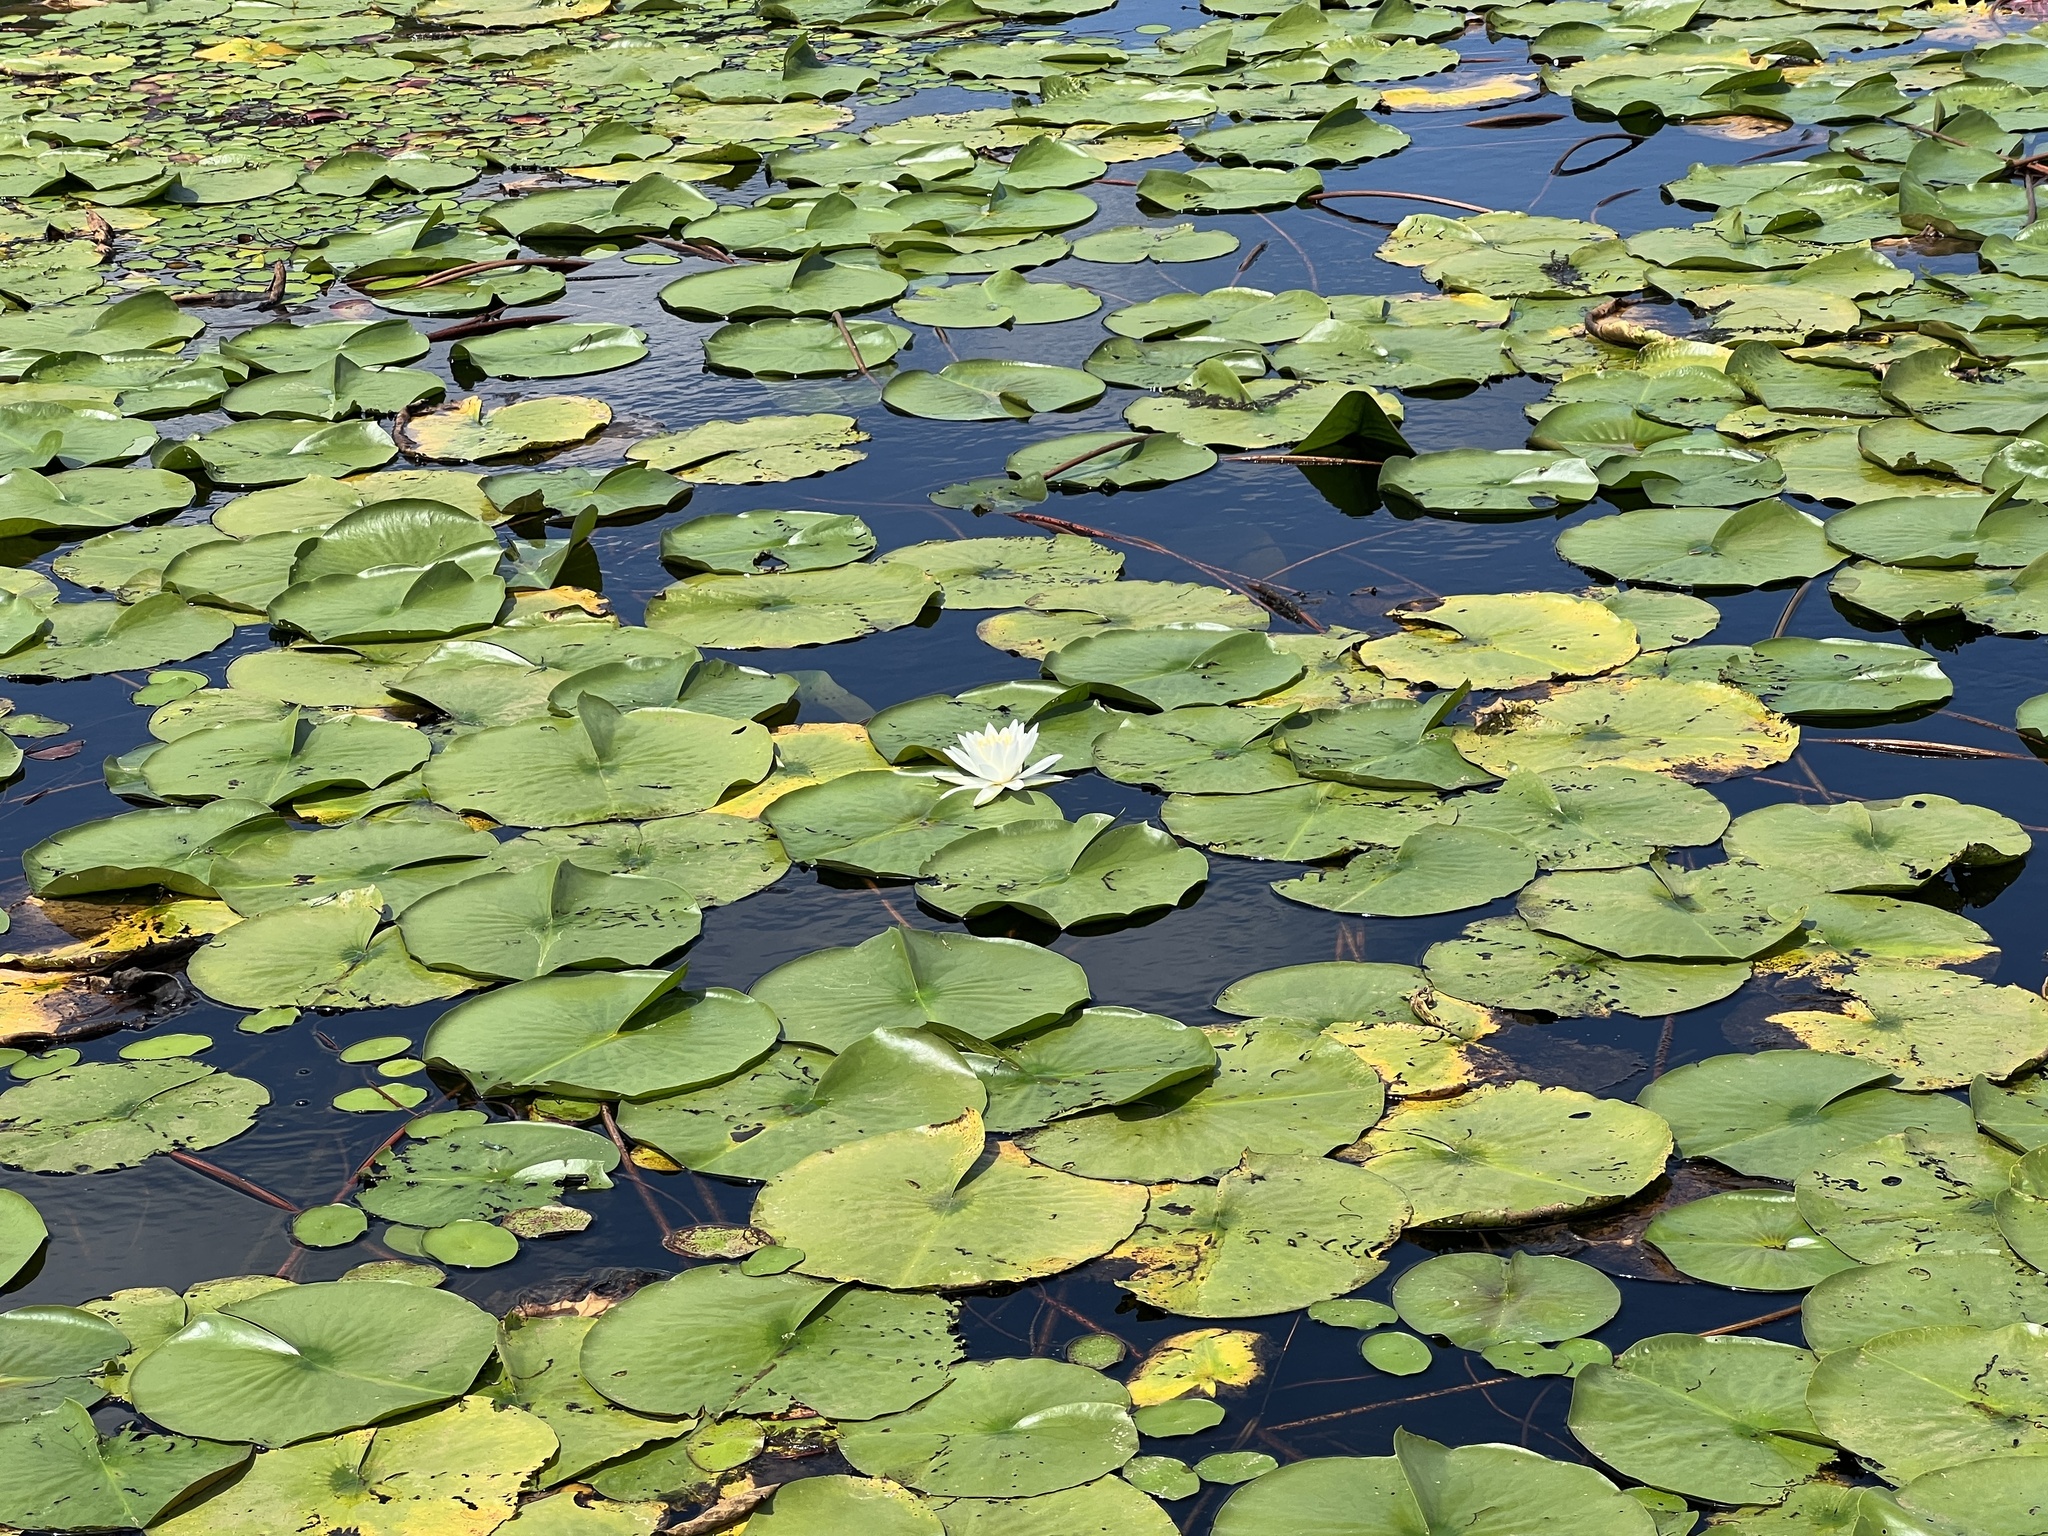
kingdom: Plantae
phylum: Tracheophyta
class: Magnoliopsida
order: Nymphaeales
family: Nymphaeaceae
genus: Nymphaea
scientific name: Nymphaea odorata
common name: Fragrant water-lily
